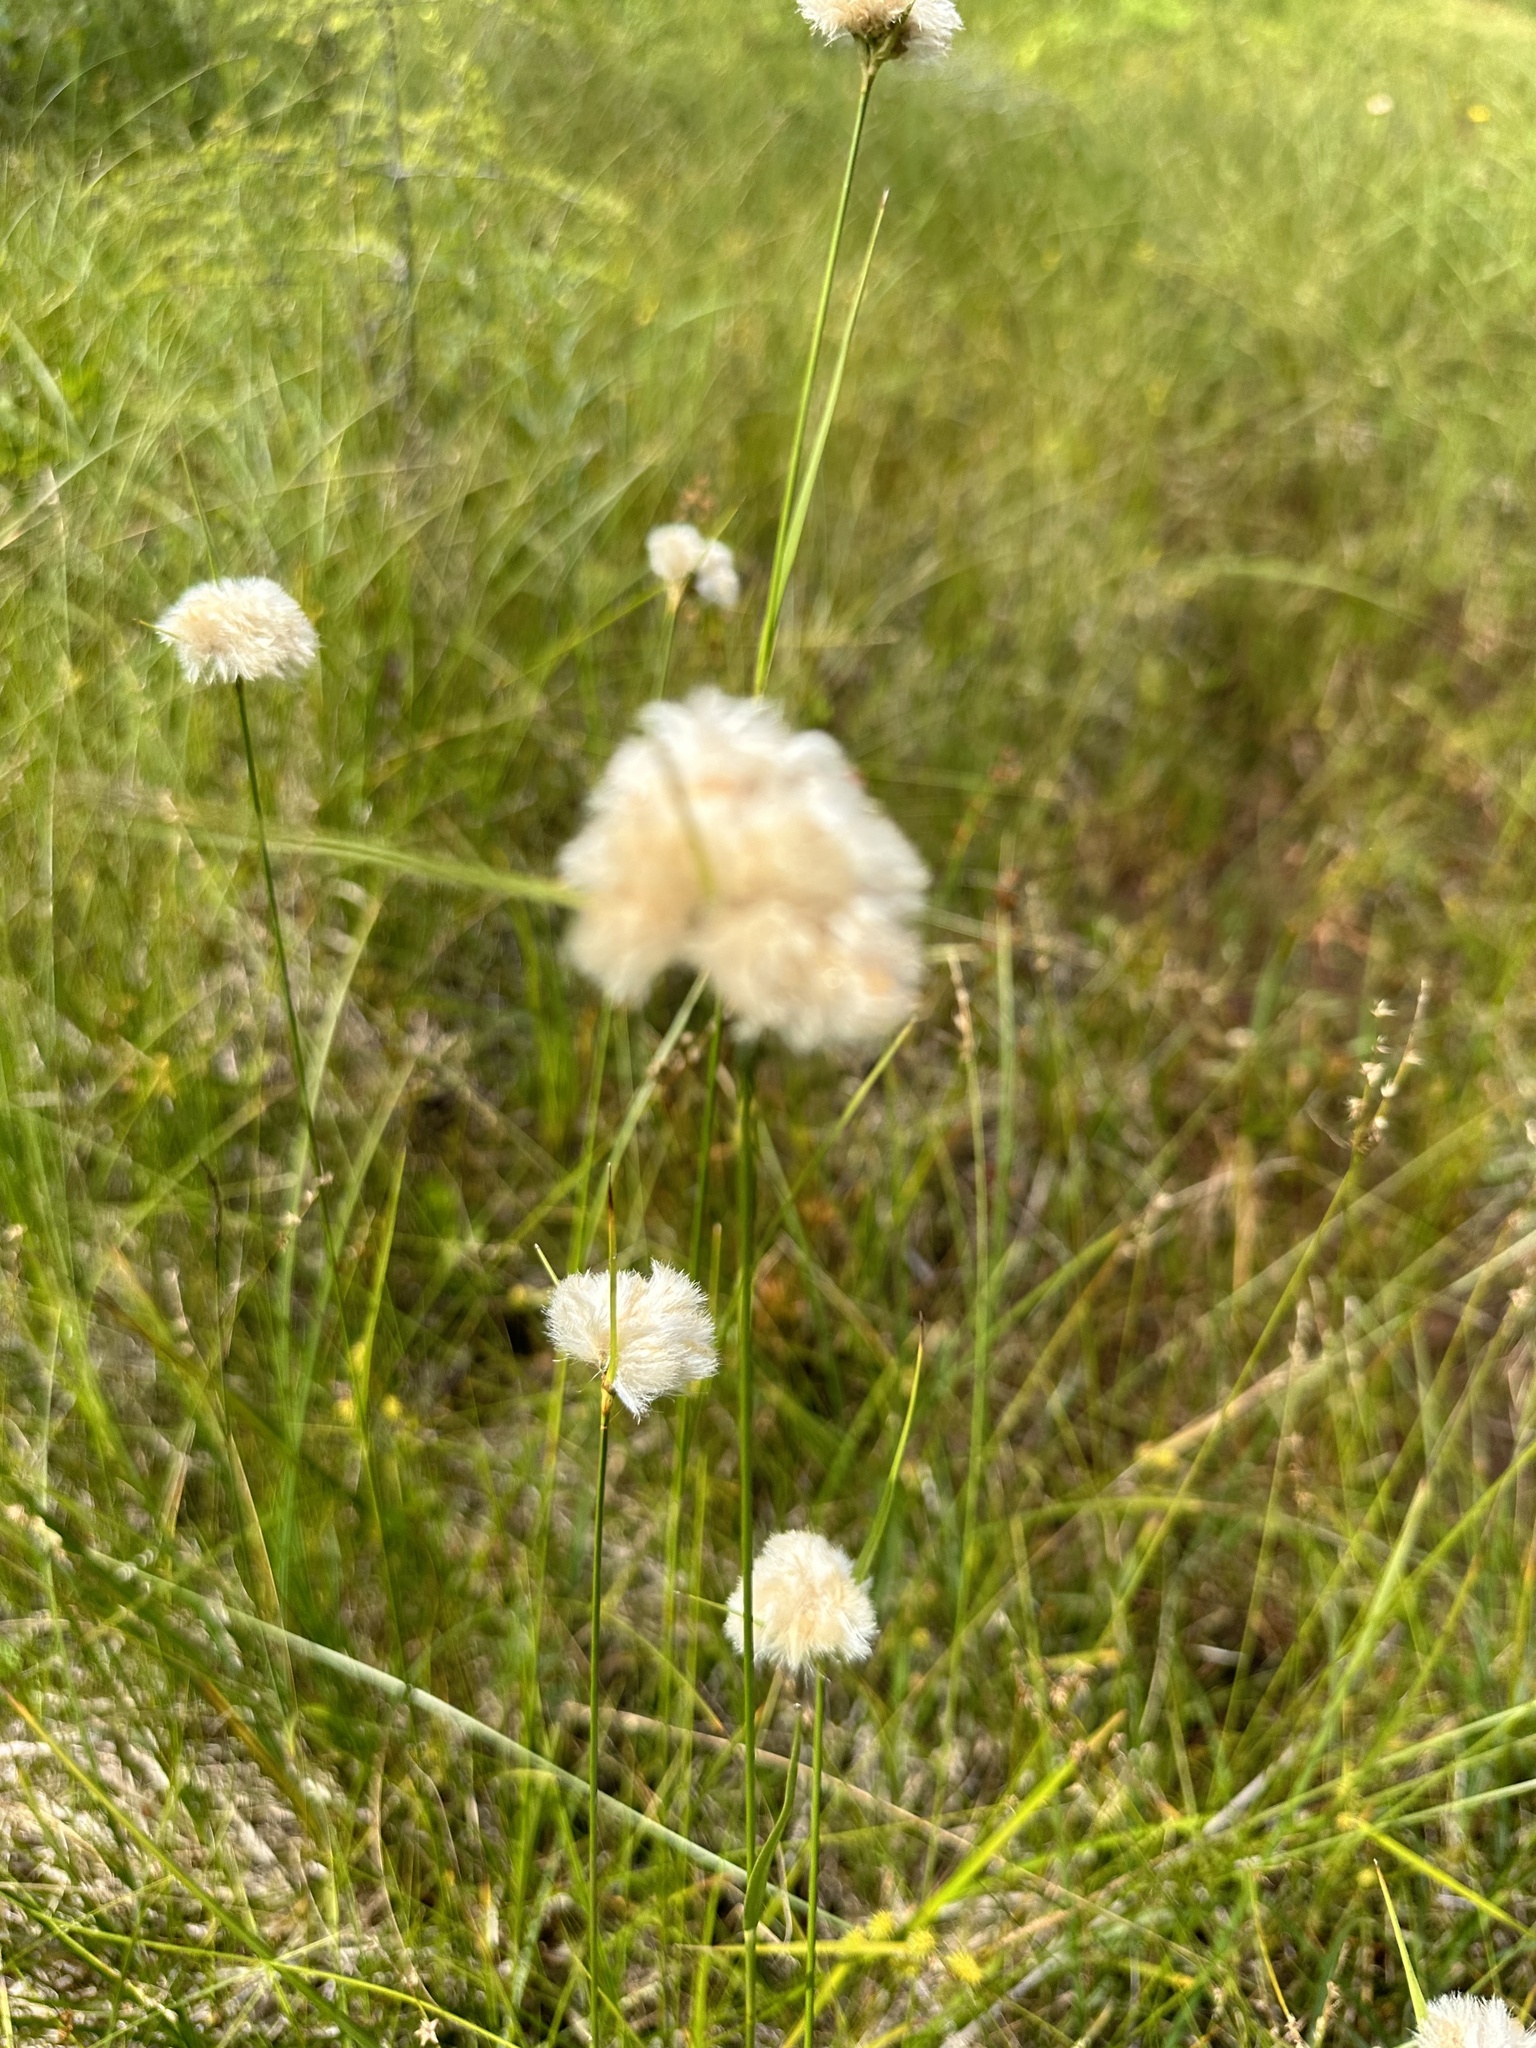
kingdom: Plantae
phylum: Tracheophyta
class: Liliopsida
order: Poales
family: Cyperaceae
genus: Eriophorum
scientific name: Eriophorum virginicum
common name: Tawny cottongrass
